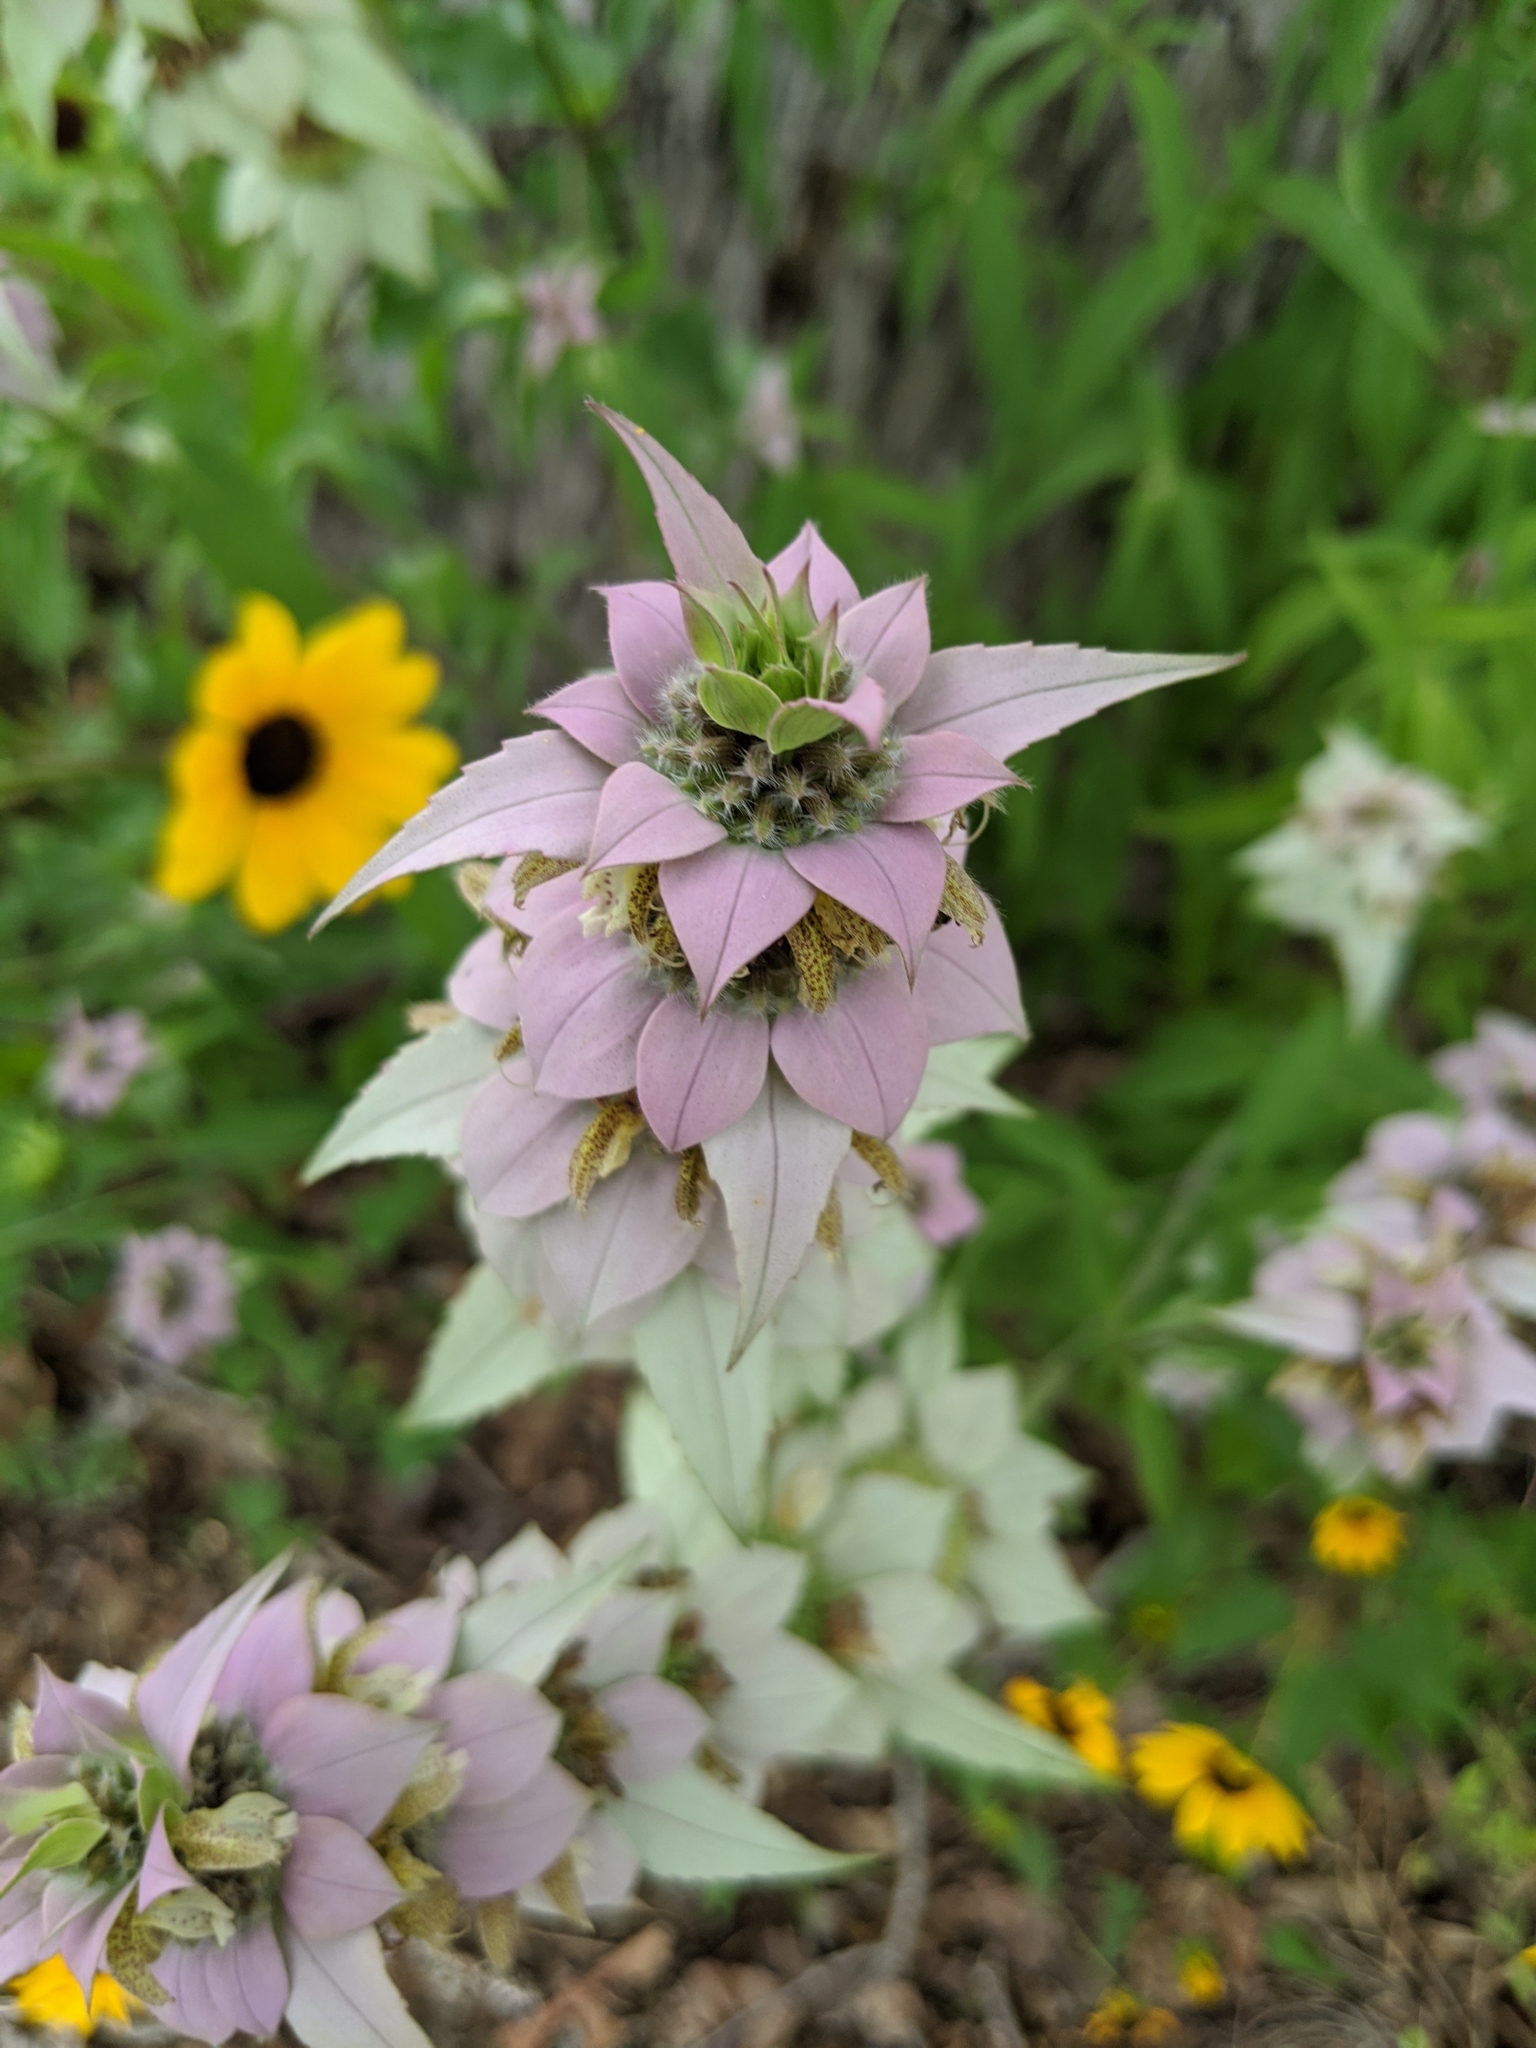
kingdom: Plantae
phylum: Tracheophyta
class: Magnoliopsida
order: Lamiales
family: Lamiaceae
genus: Monarda
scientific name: Monarda punctata
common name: Dotted monarda
